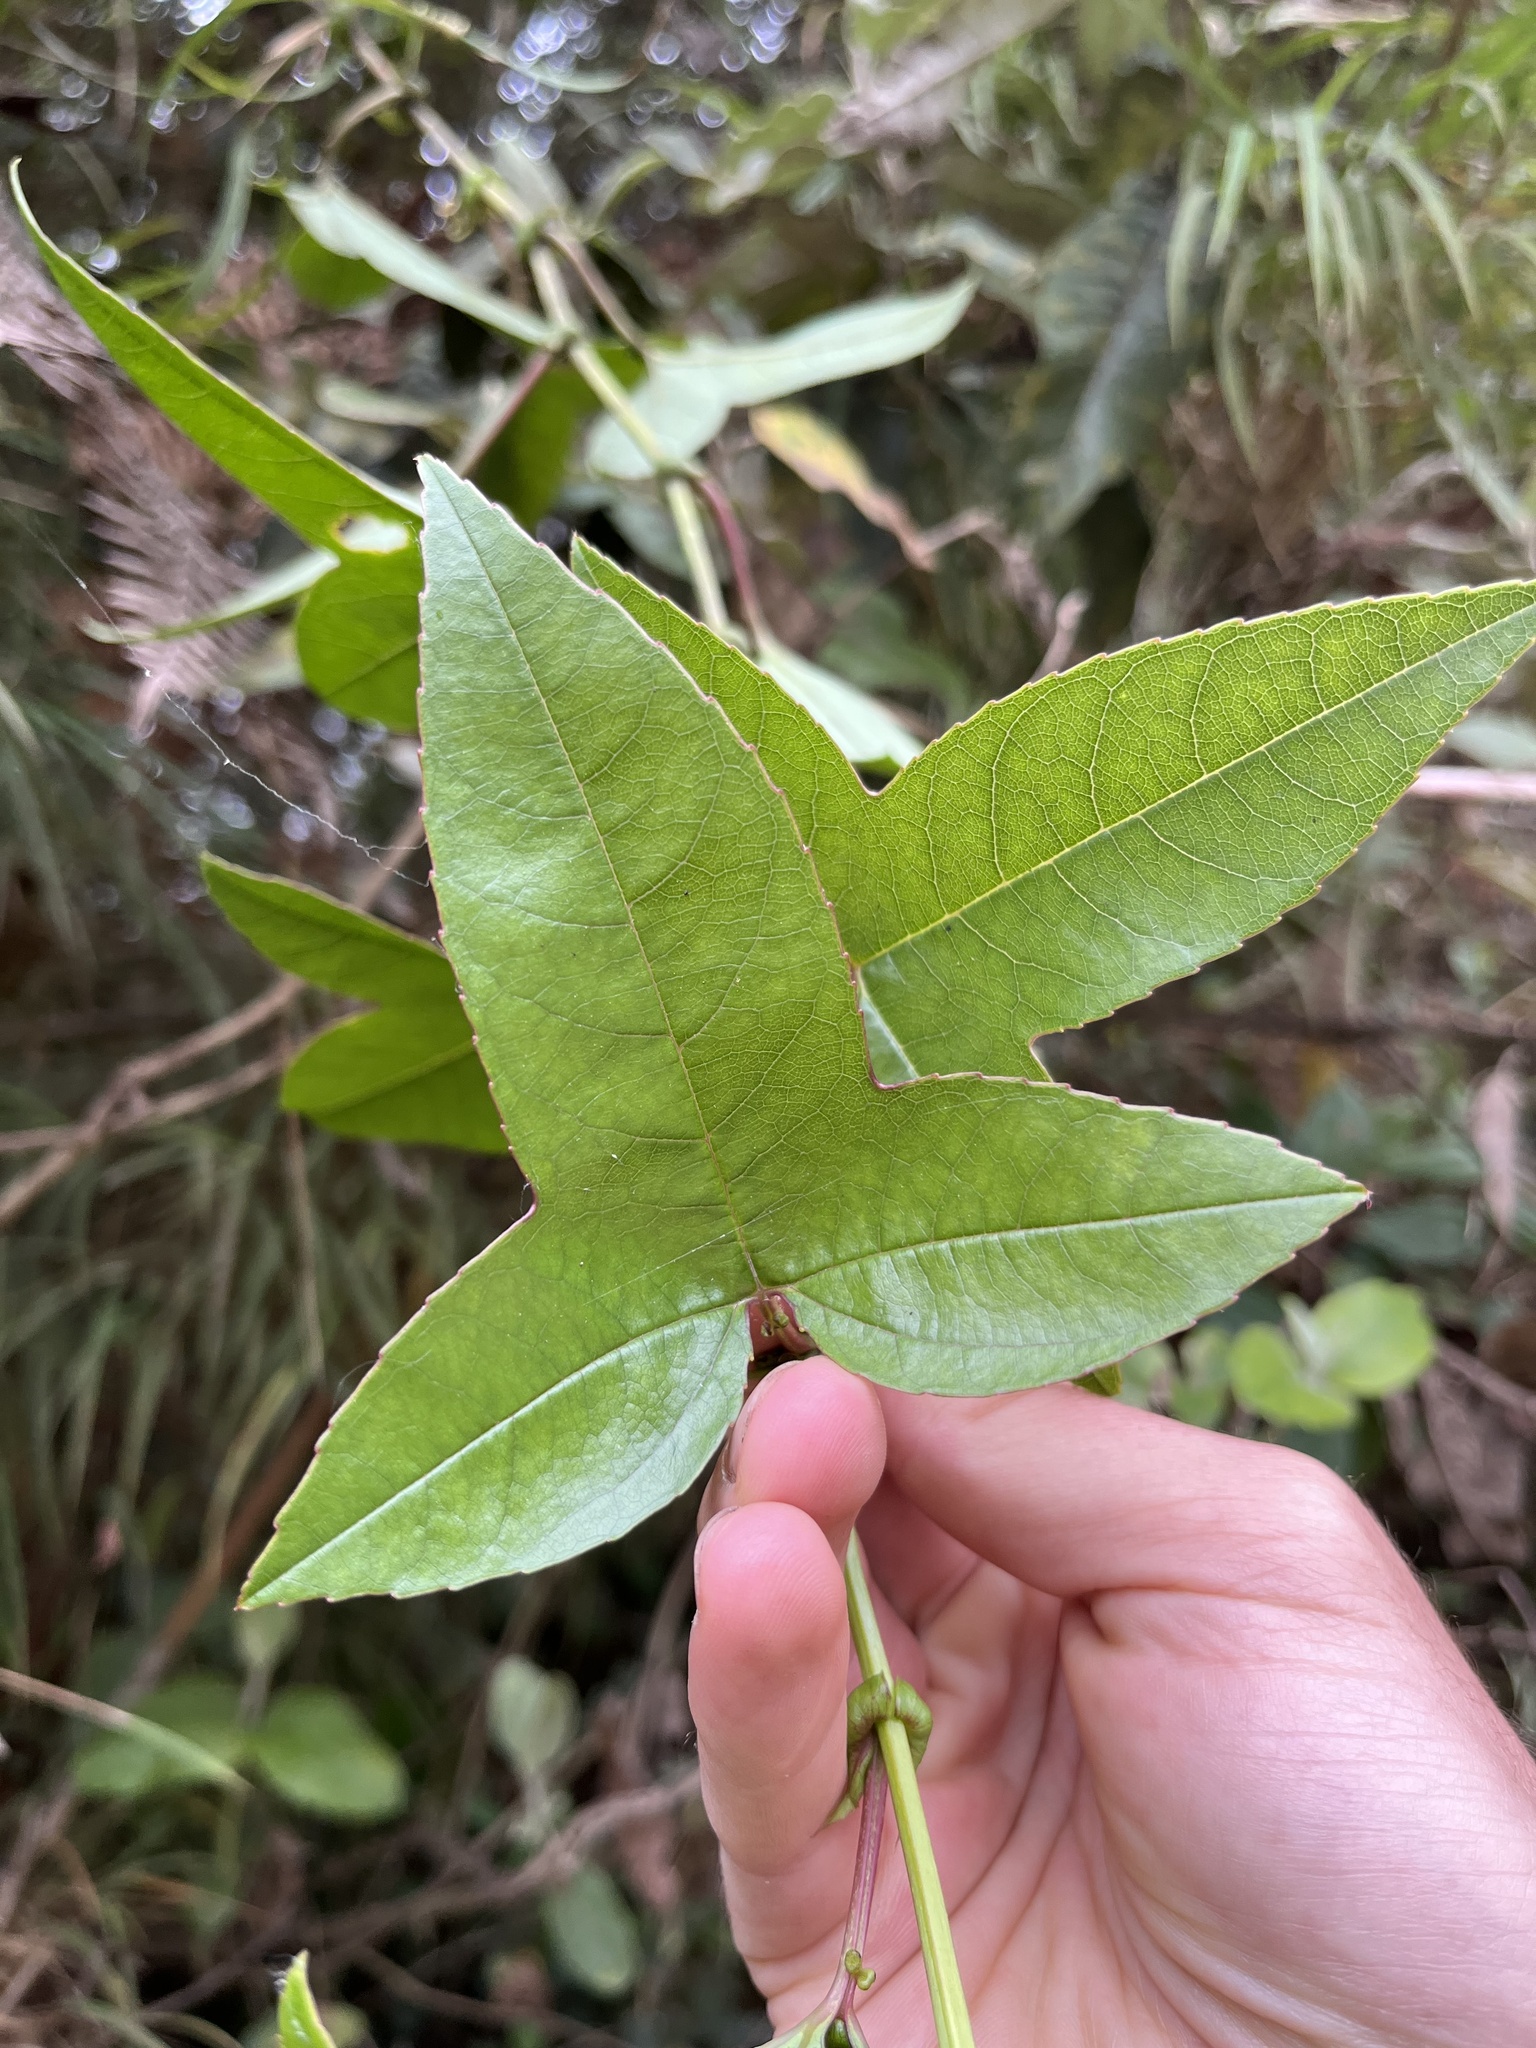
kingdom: Plantae
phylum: Tracheophyta
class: Magnoliopsida
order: Malpighiales
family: Passifloraceae
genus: Passiflora
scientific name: Passiflora cumbalensis
